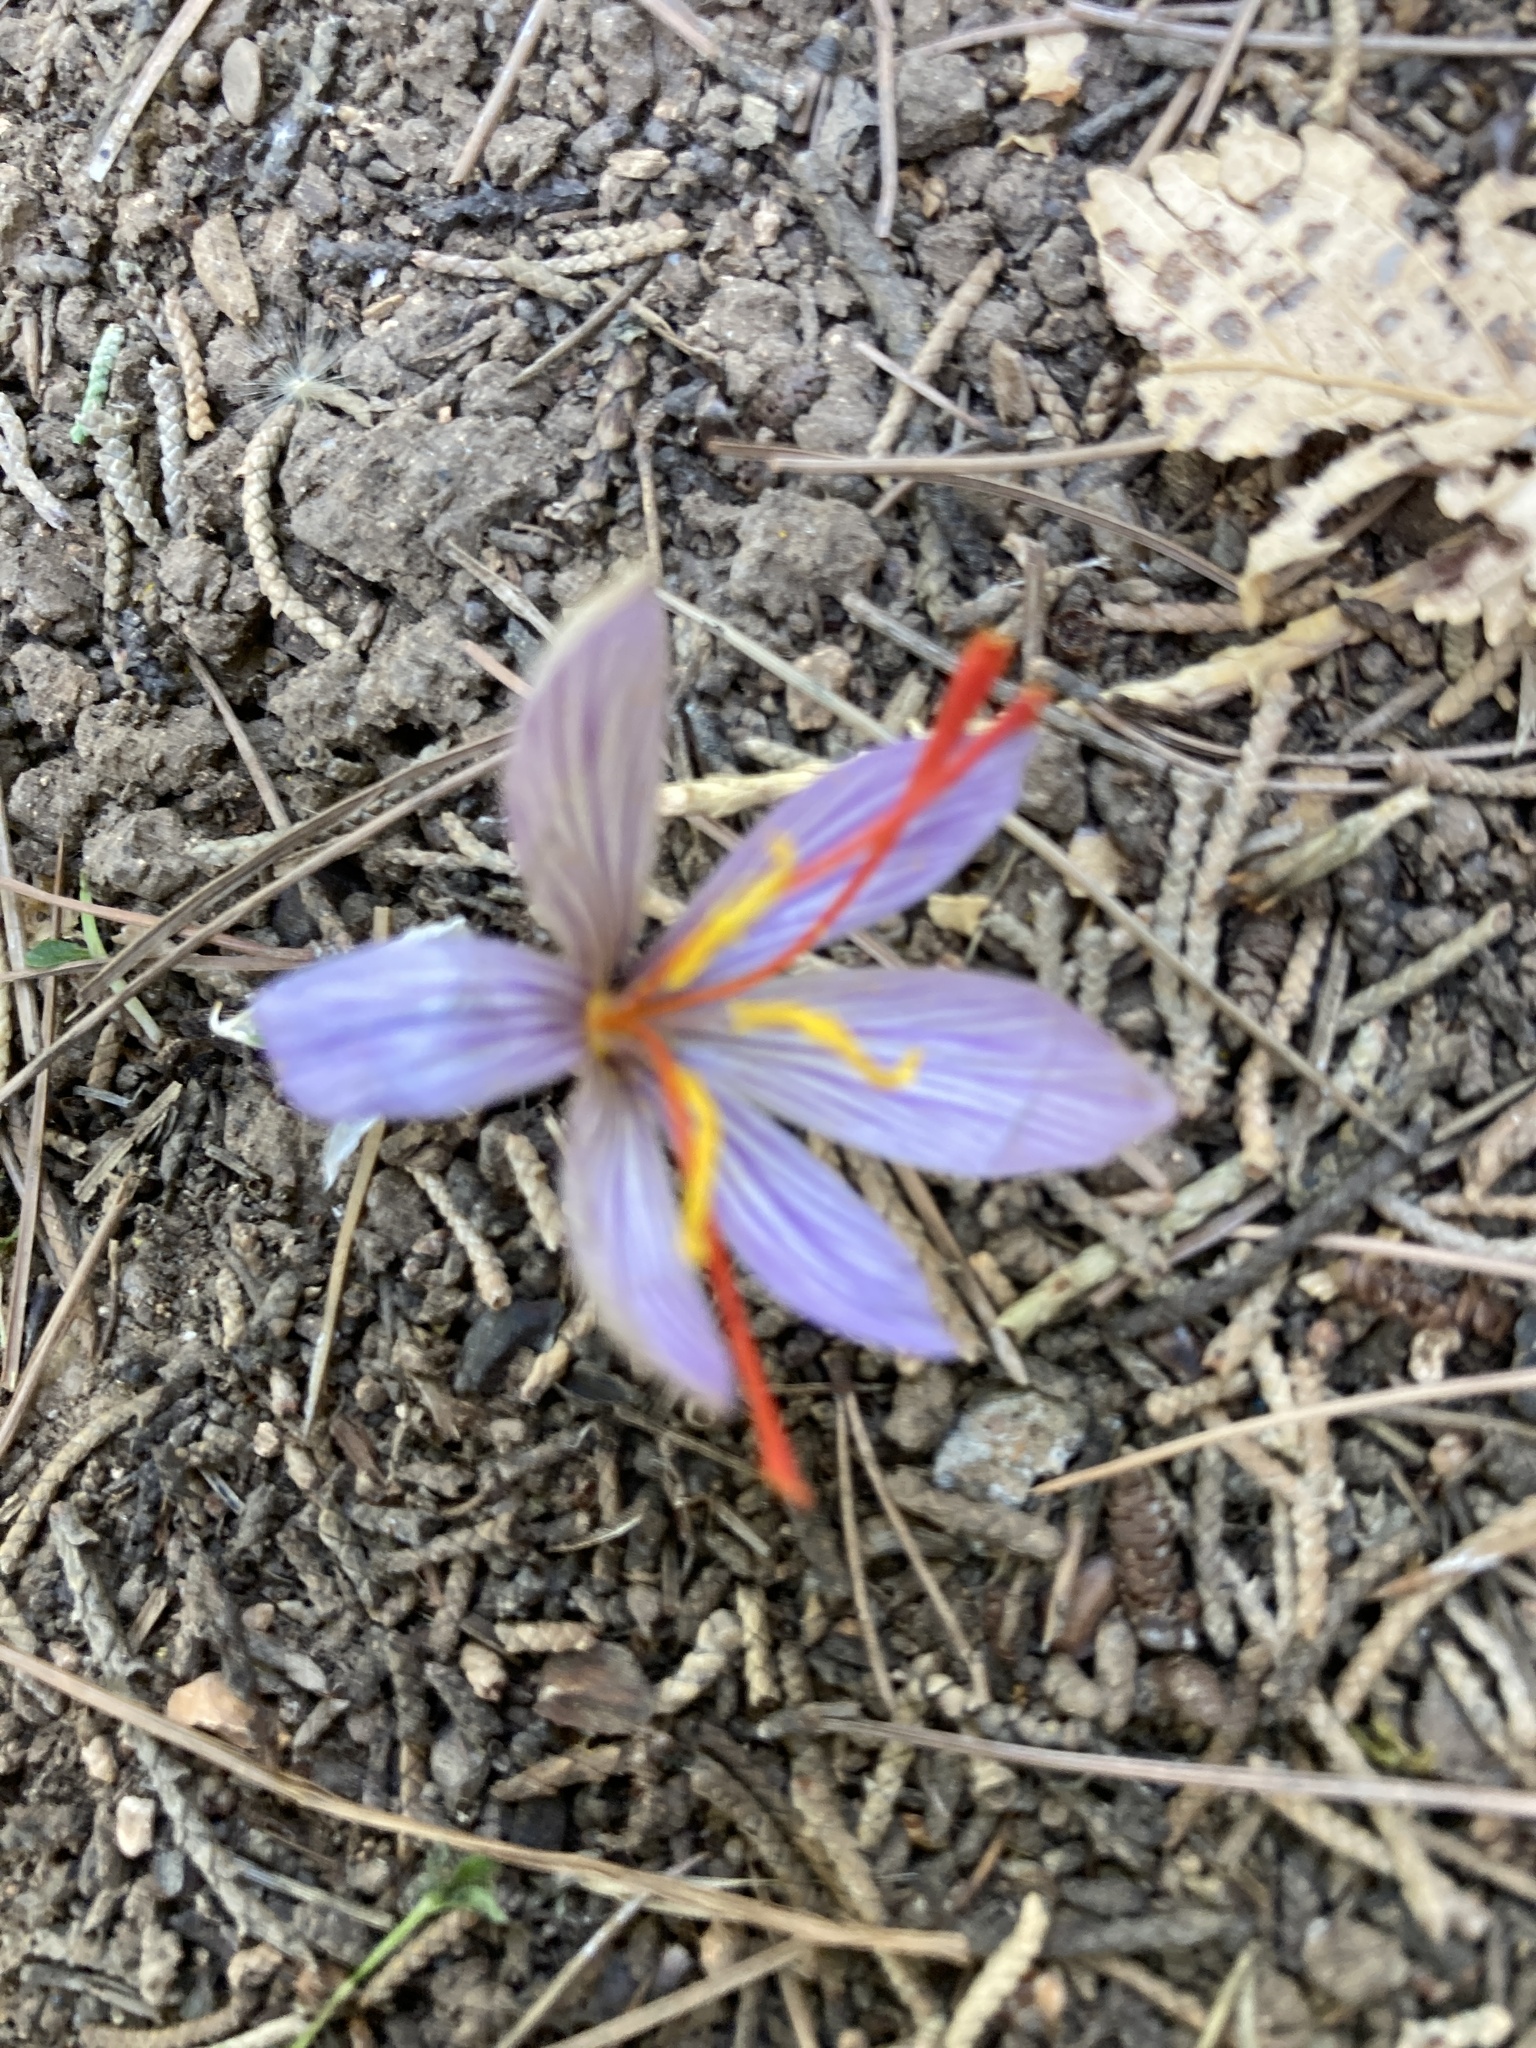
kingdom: Plantae
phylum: Tracheophyta
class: Liliopsida
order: Asparagales
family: Iridaceae
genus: Crocus
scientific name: Crocus cartwrightianus
